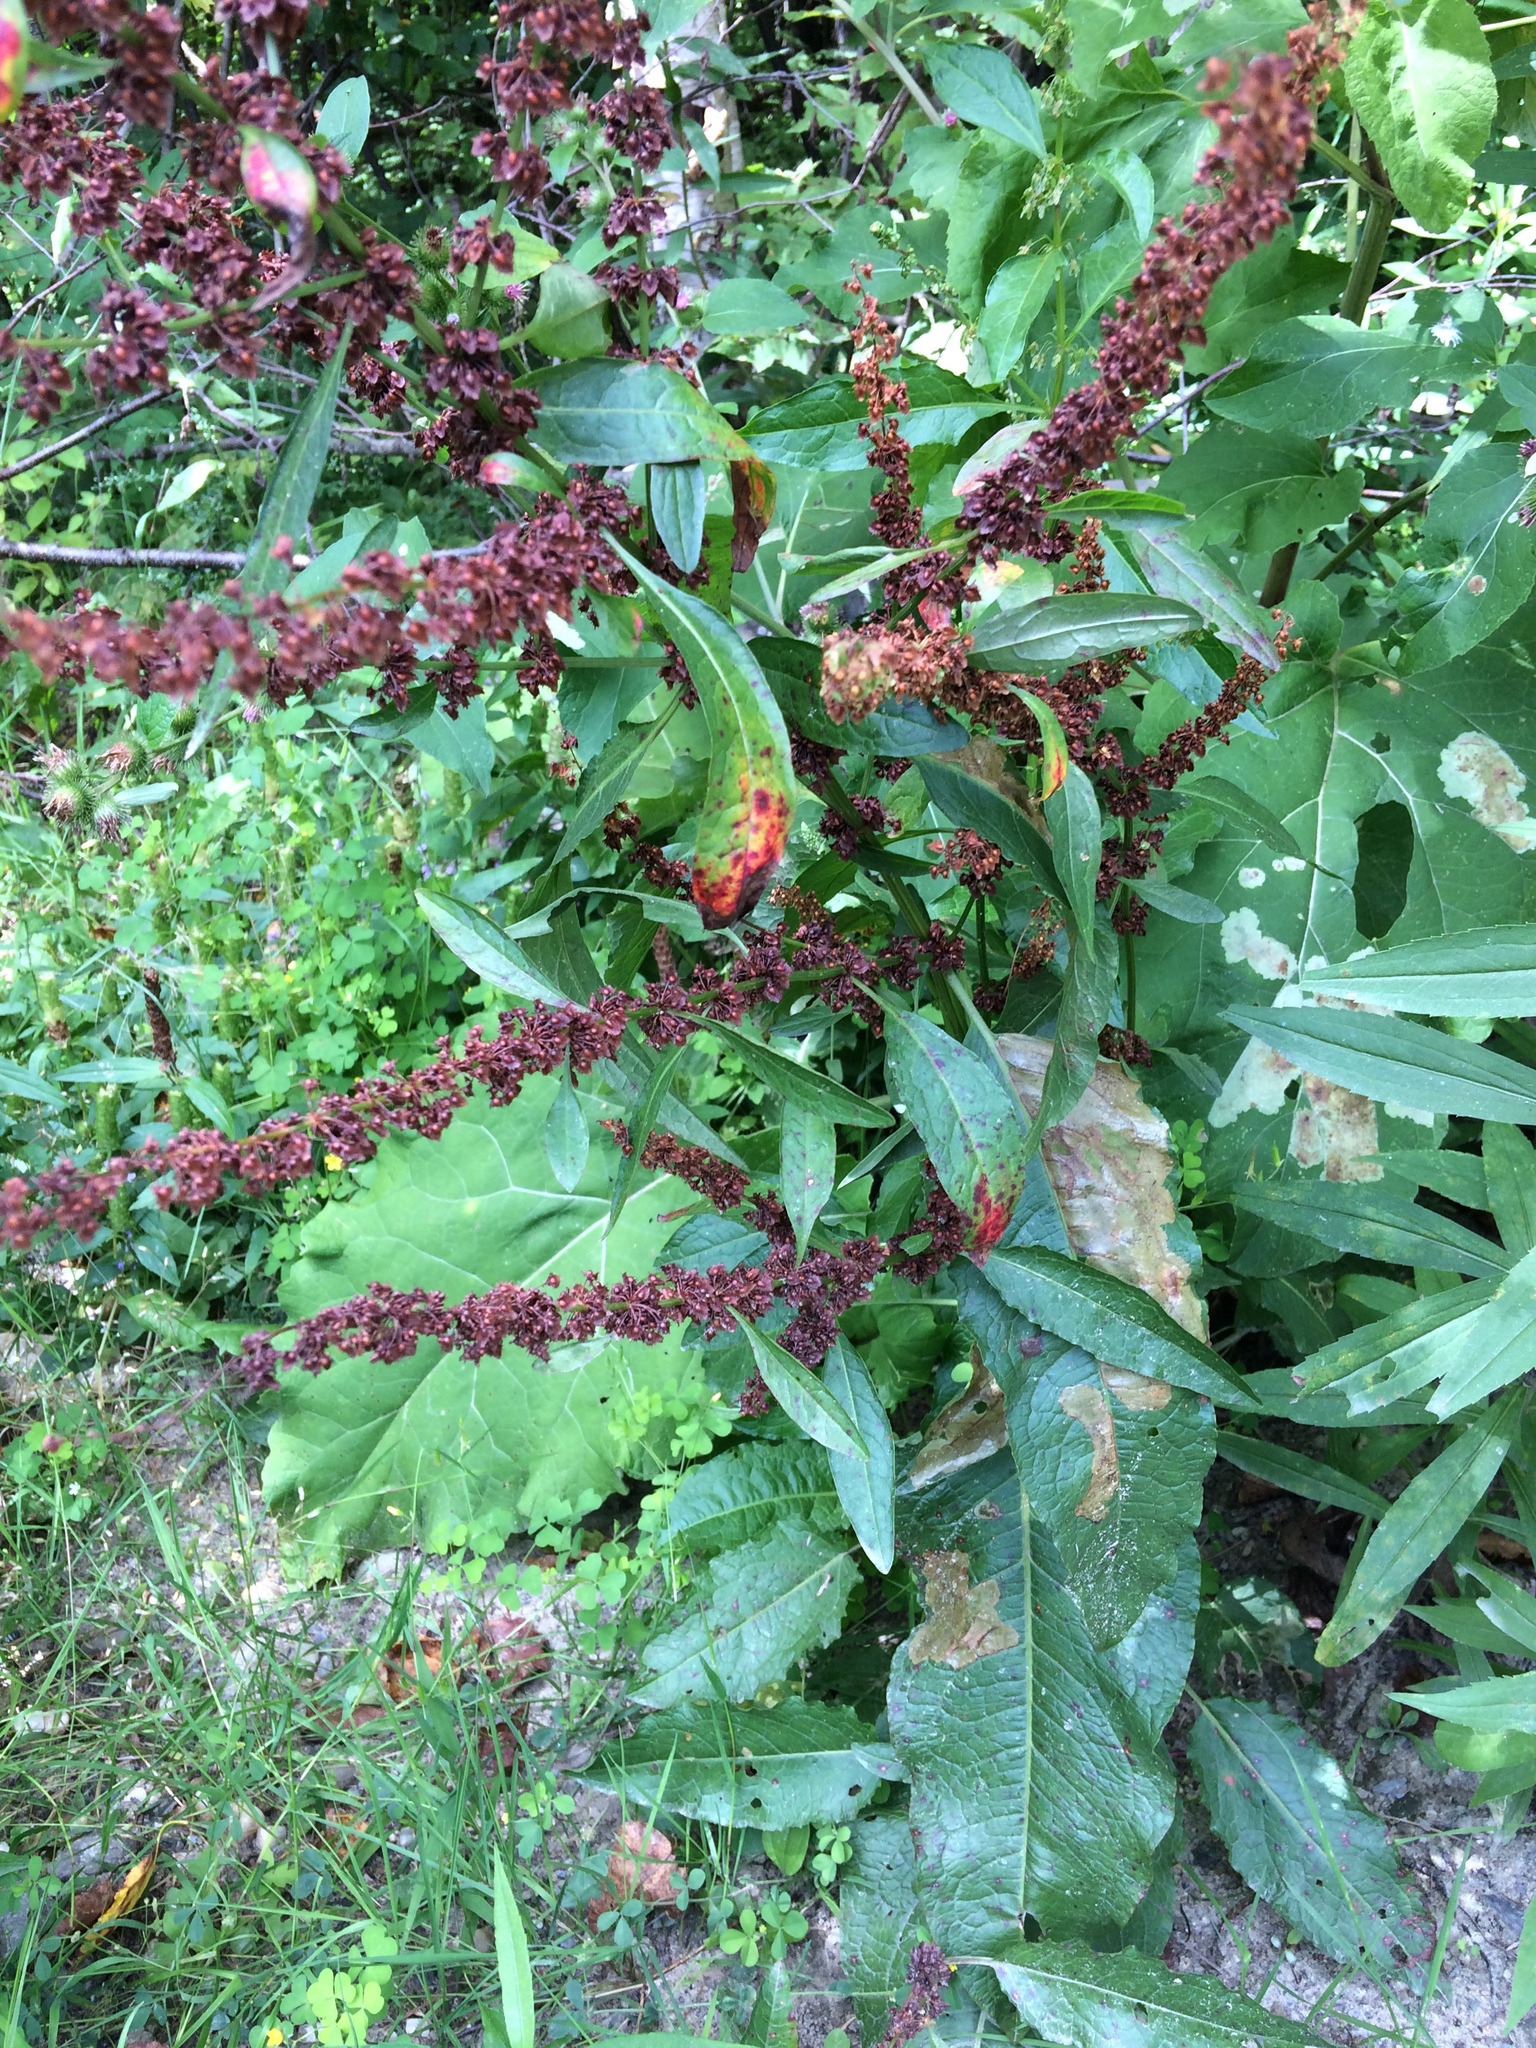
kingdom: Plantae
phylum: Tracheophyta
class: Magnoliopsida
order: Caryophyllales
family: Polygonaceae
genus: Rumex
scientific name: Rumex obtusifolius
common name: Bitter dock
